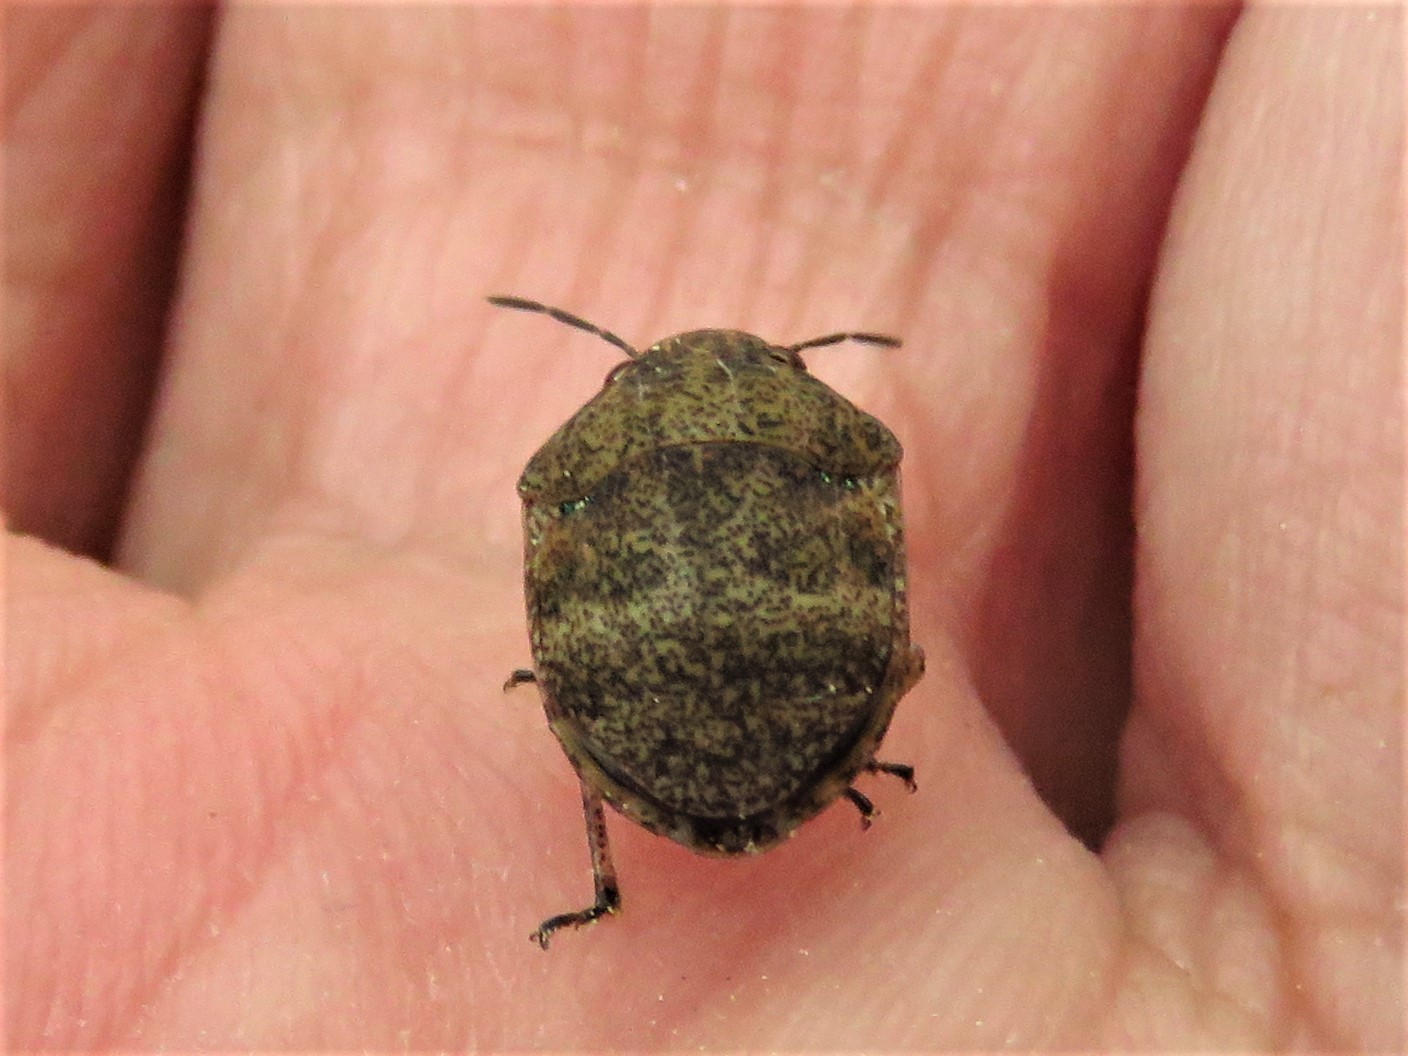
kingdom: Animalia
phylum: Arthropoda
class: Insecta
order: Hemiptera
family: Scutelleridae
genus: Orsilochides
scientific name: Orsilochides
